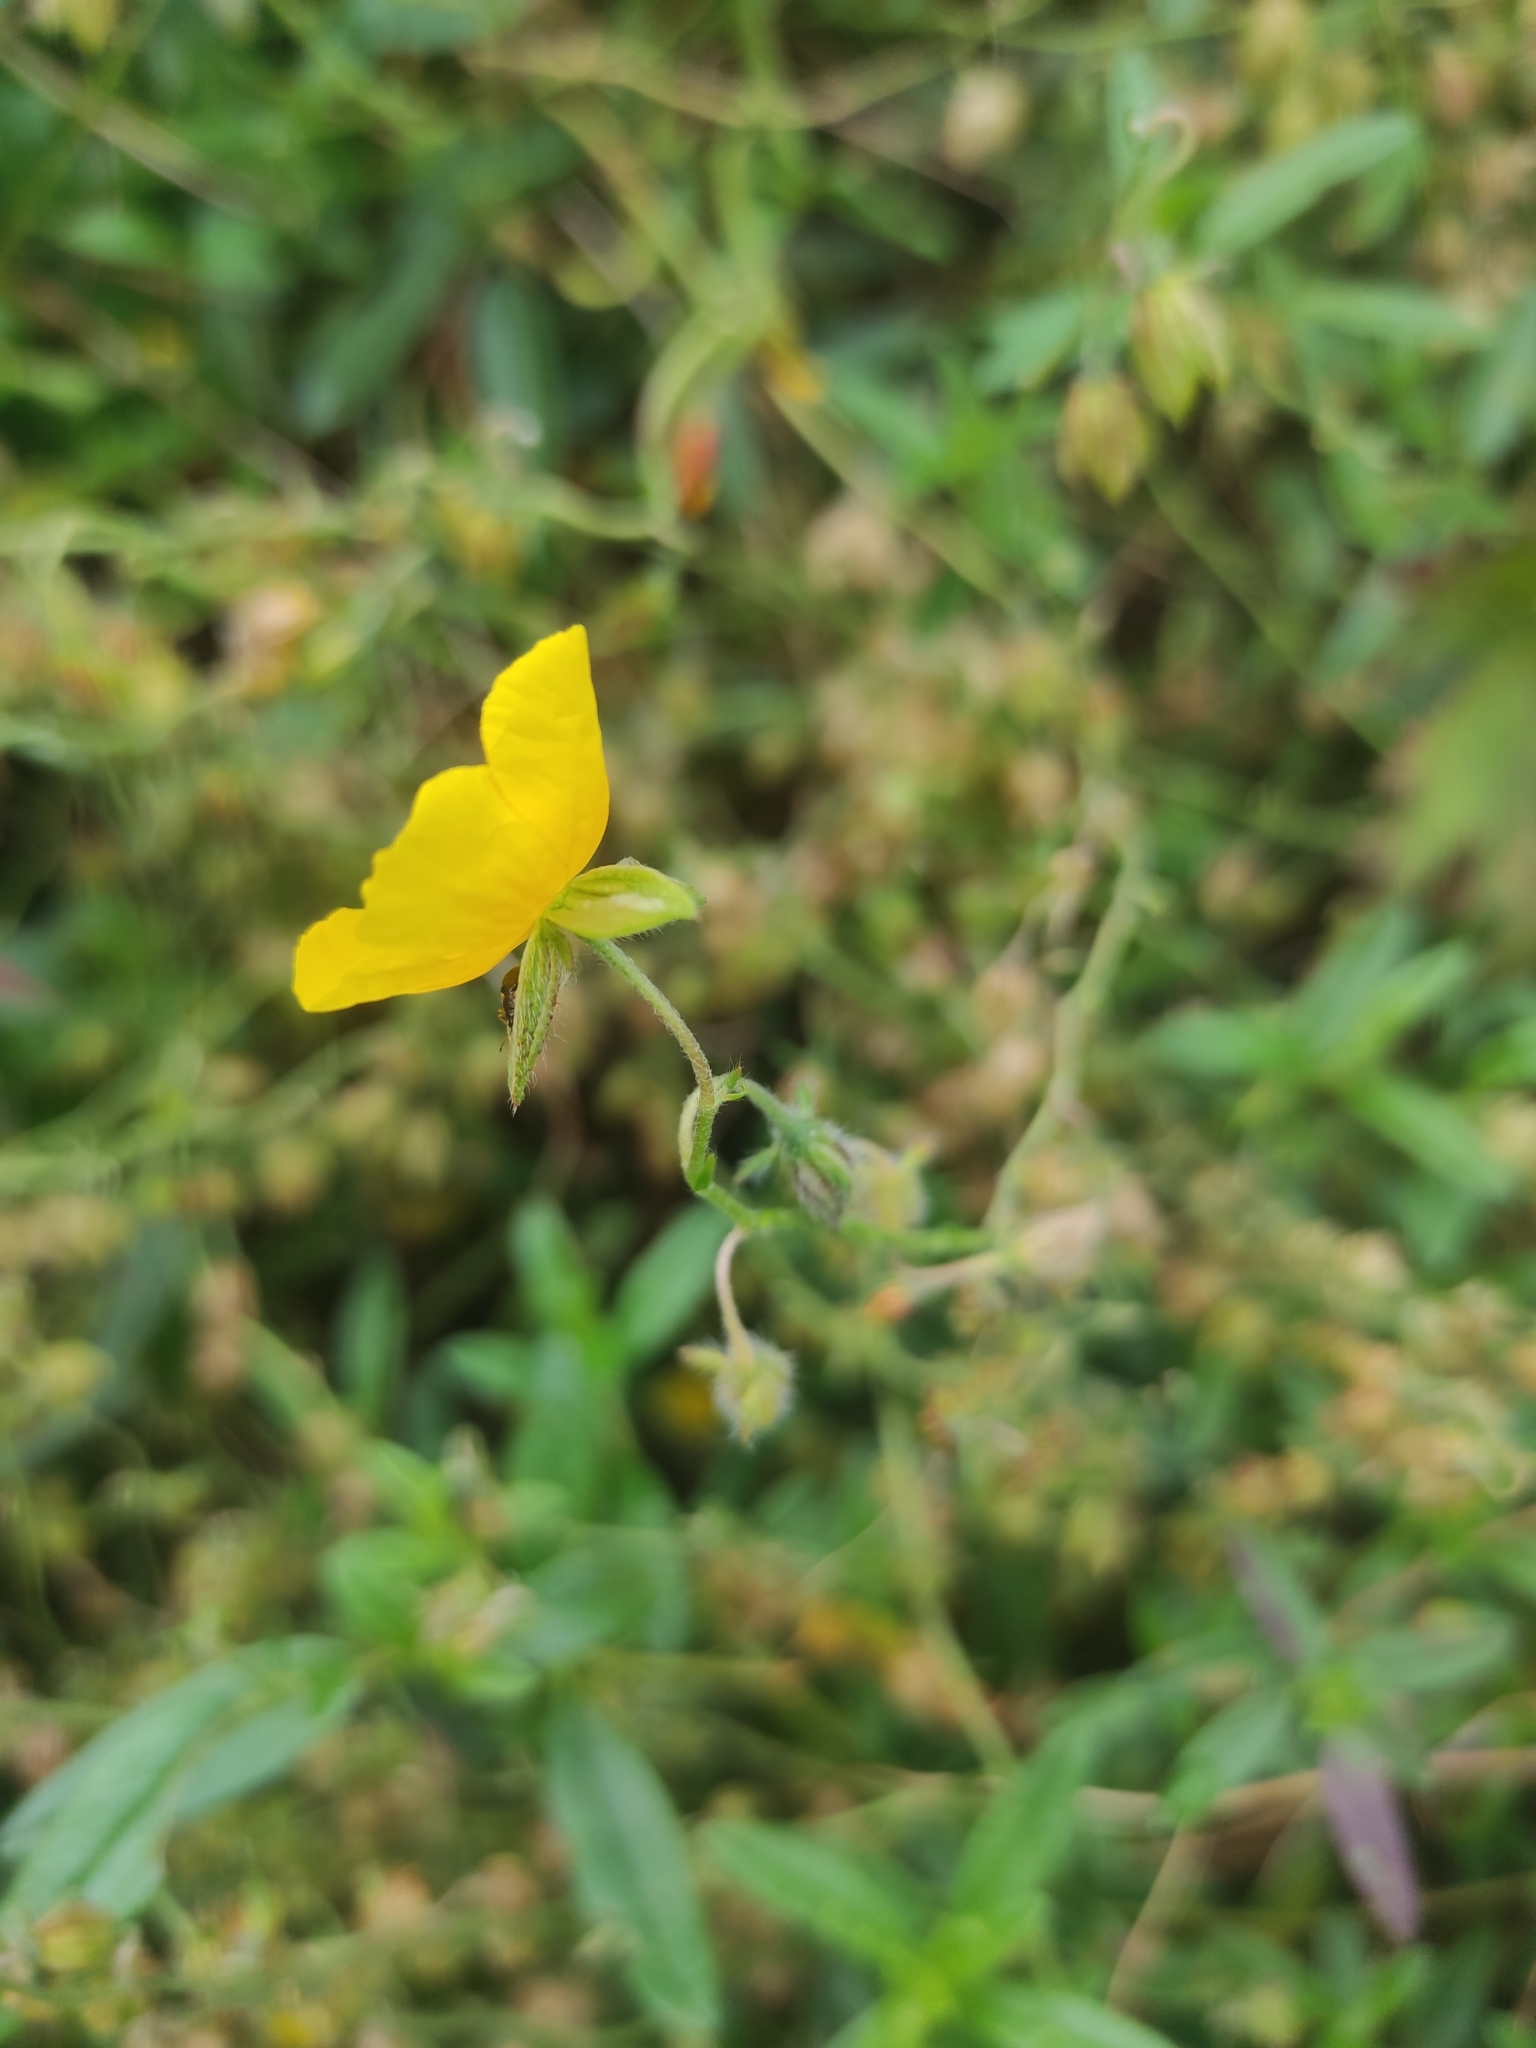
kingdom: Plantae
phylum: Tracheophyta
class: Magnoliopsida
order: Malvales
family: Cistaceae
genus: Helianthemum
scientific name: Helianthemum nummularium
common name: Common rock-rose
